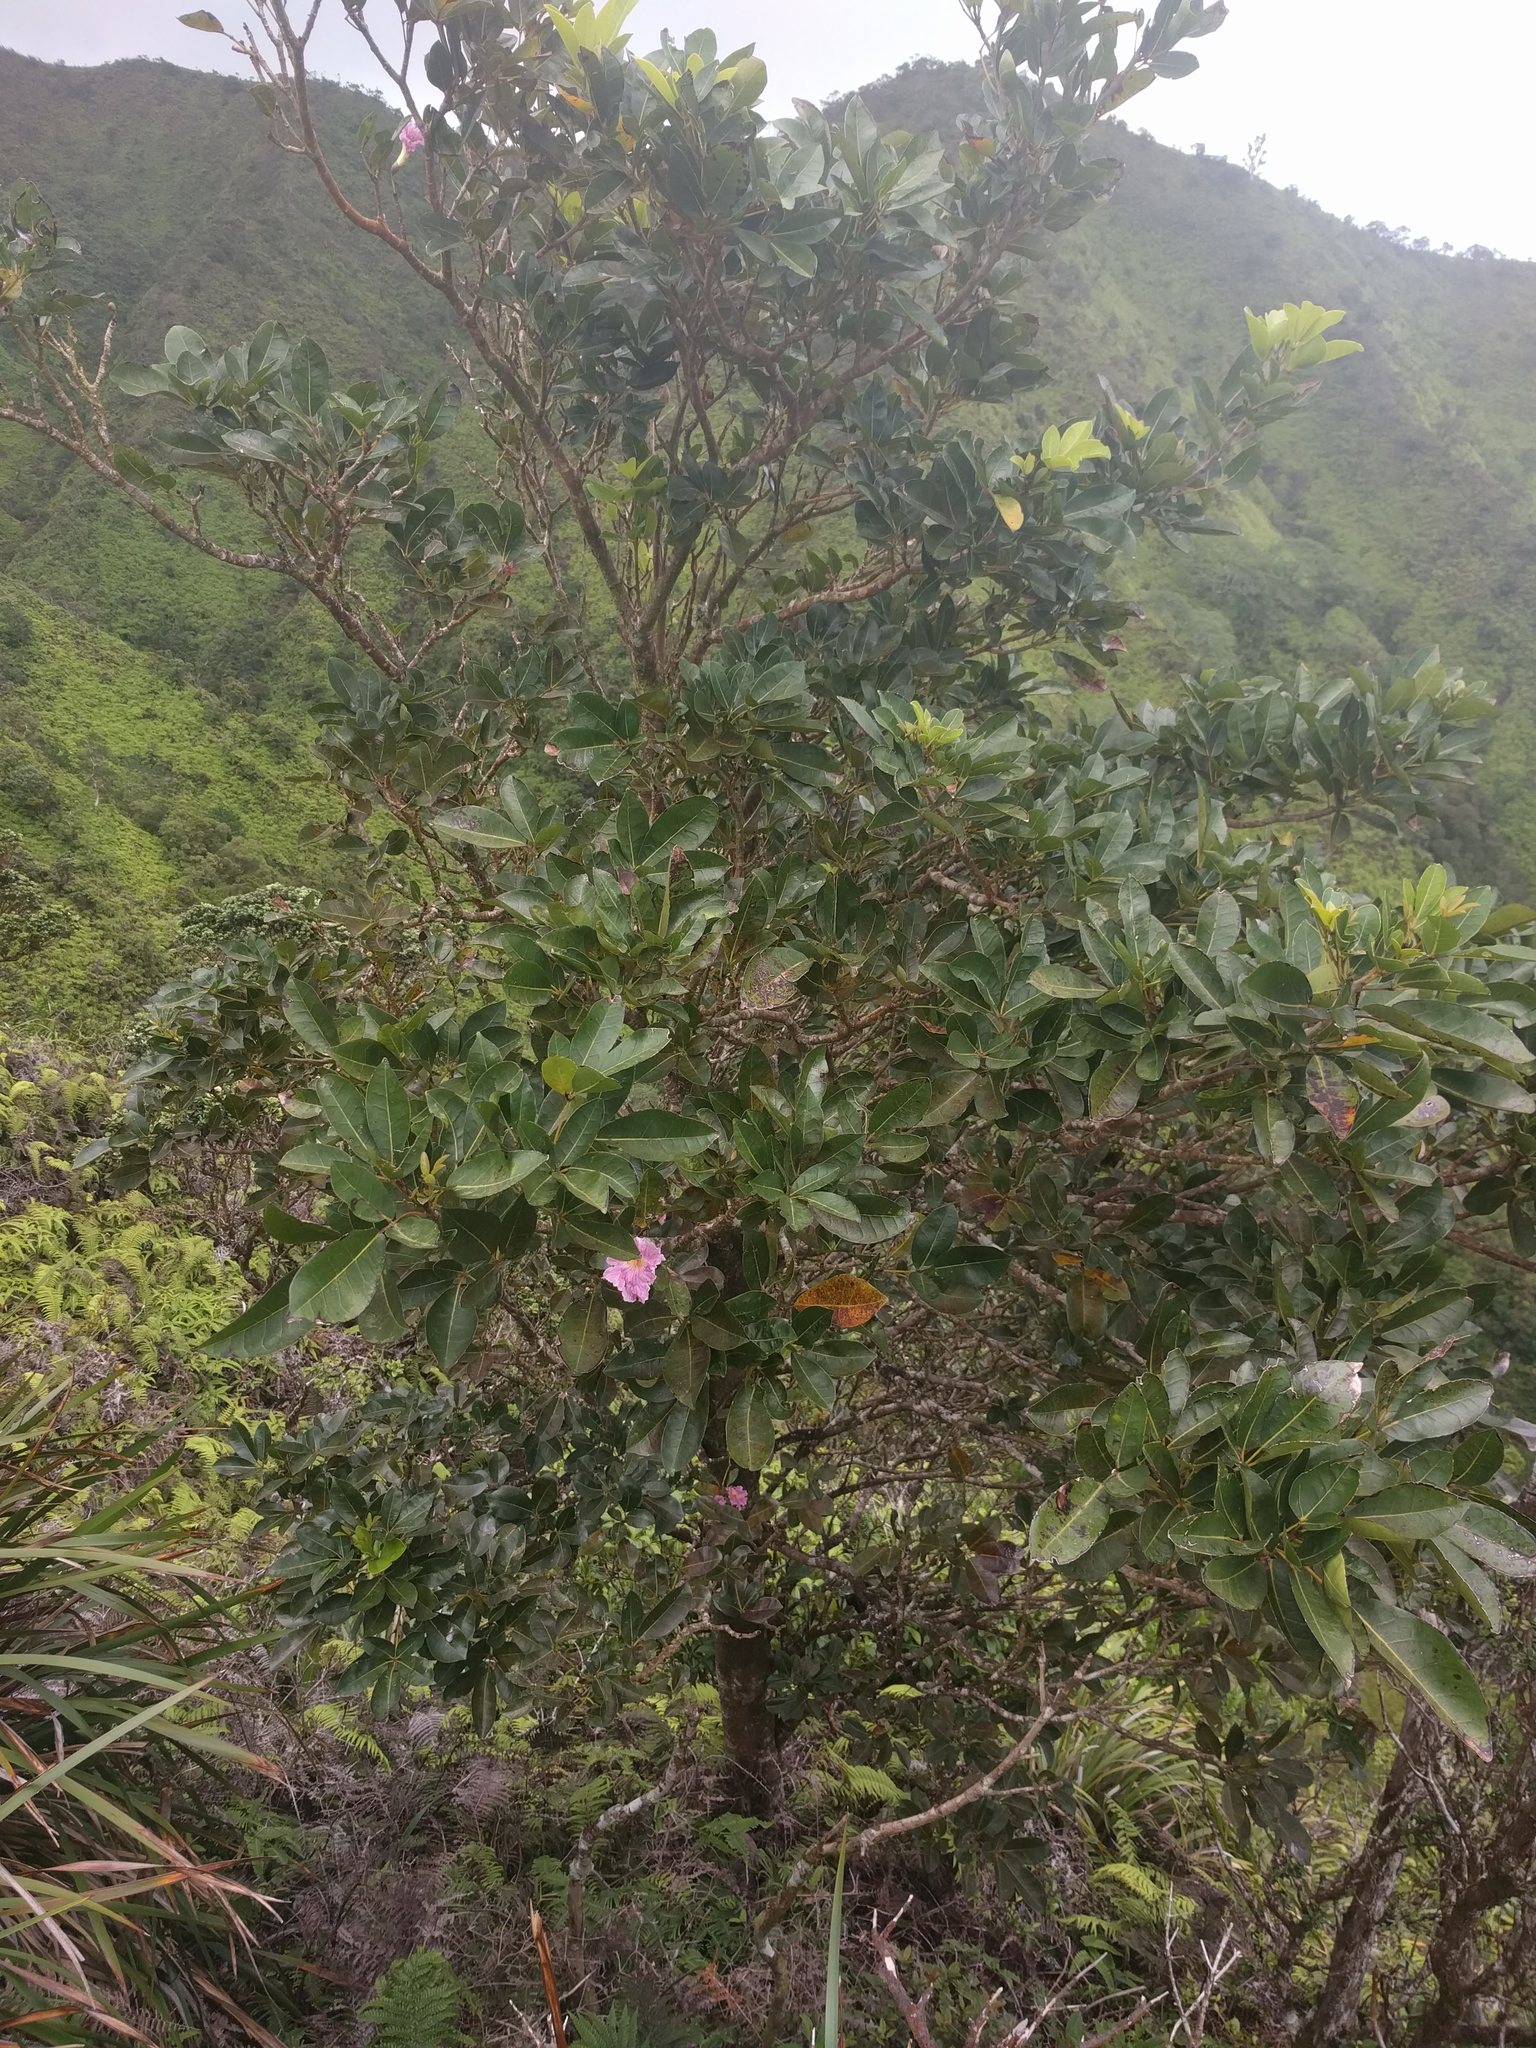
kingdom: Plantae
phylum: Tracheophyta
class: Magnoliopsida
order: Lamiales
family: Bignoniaceae
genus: Tabebuia
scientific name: Tabebuia heterophylla
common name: White cedar
